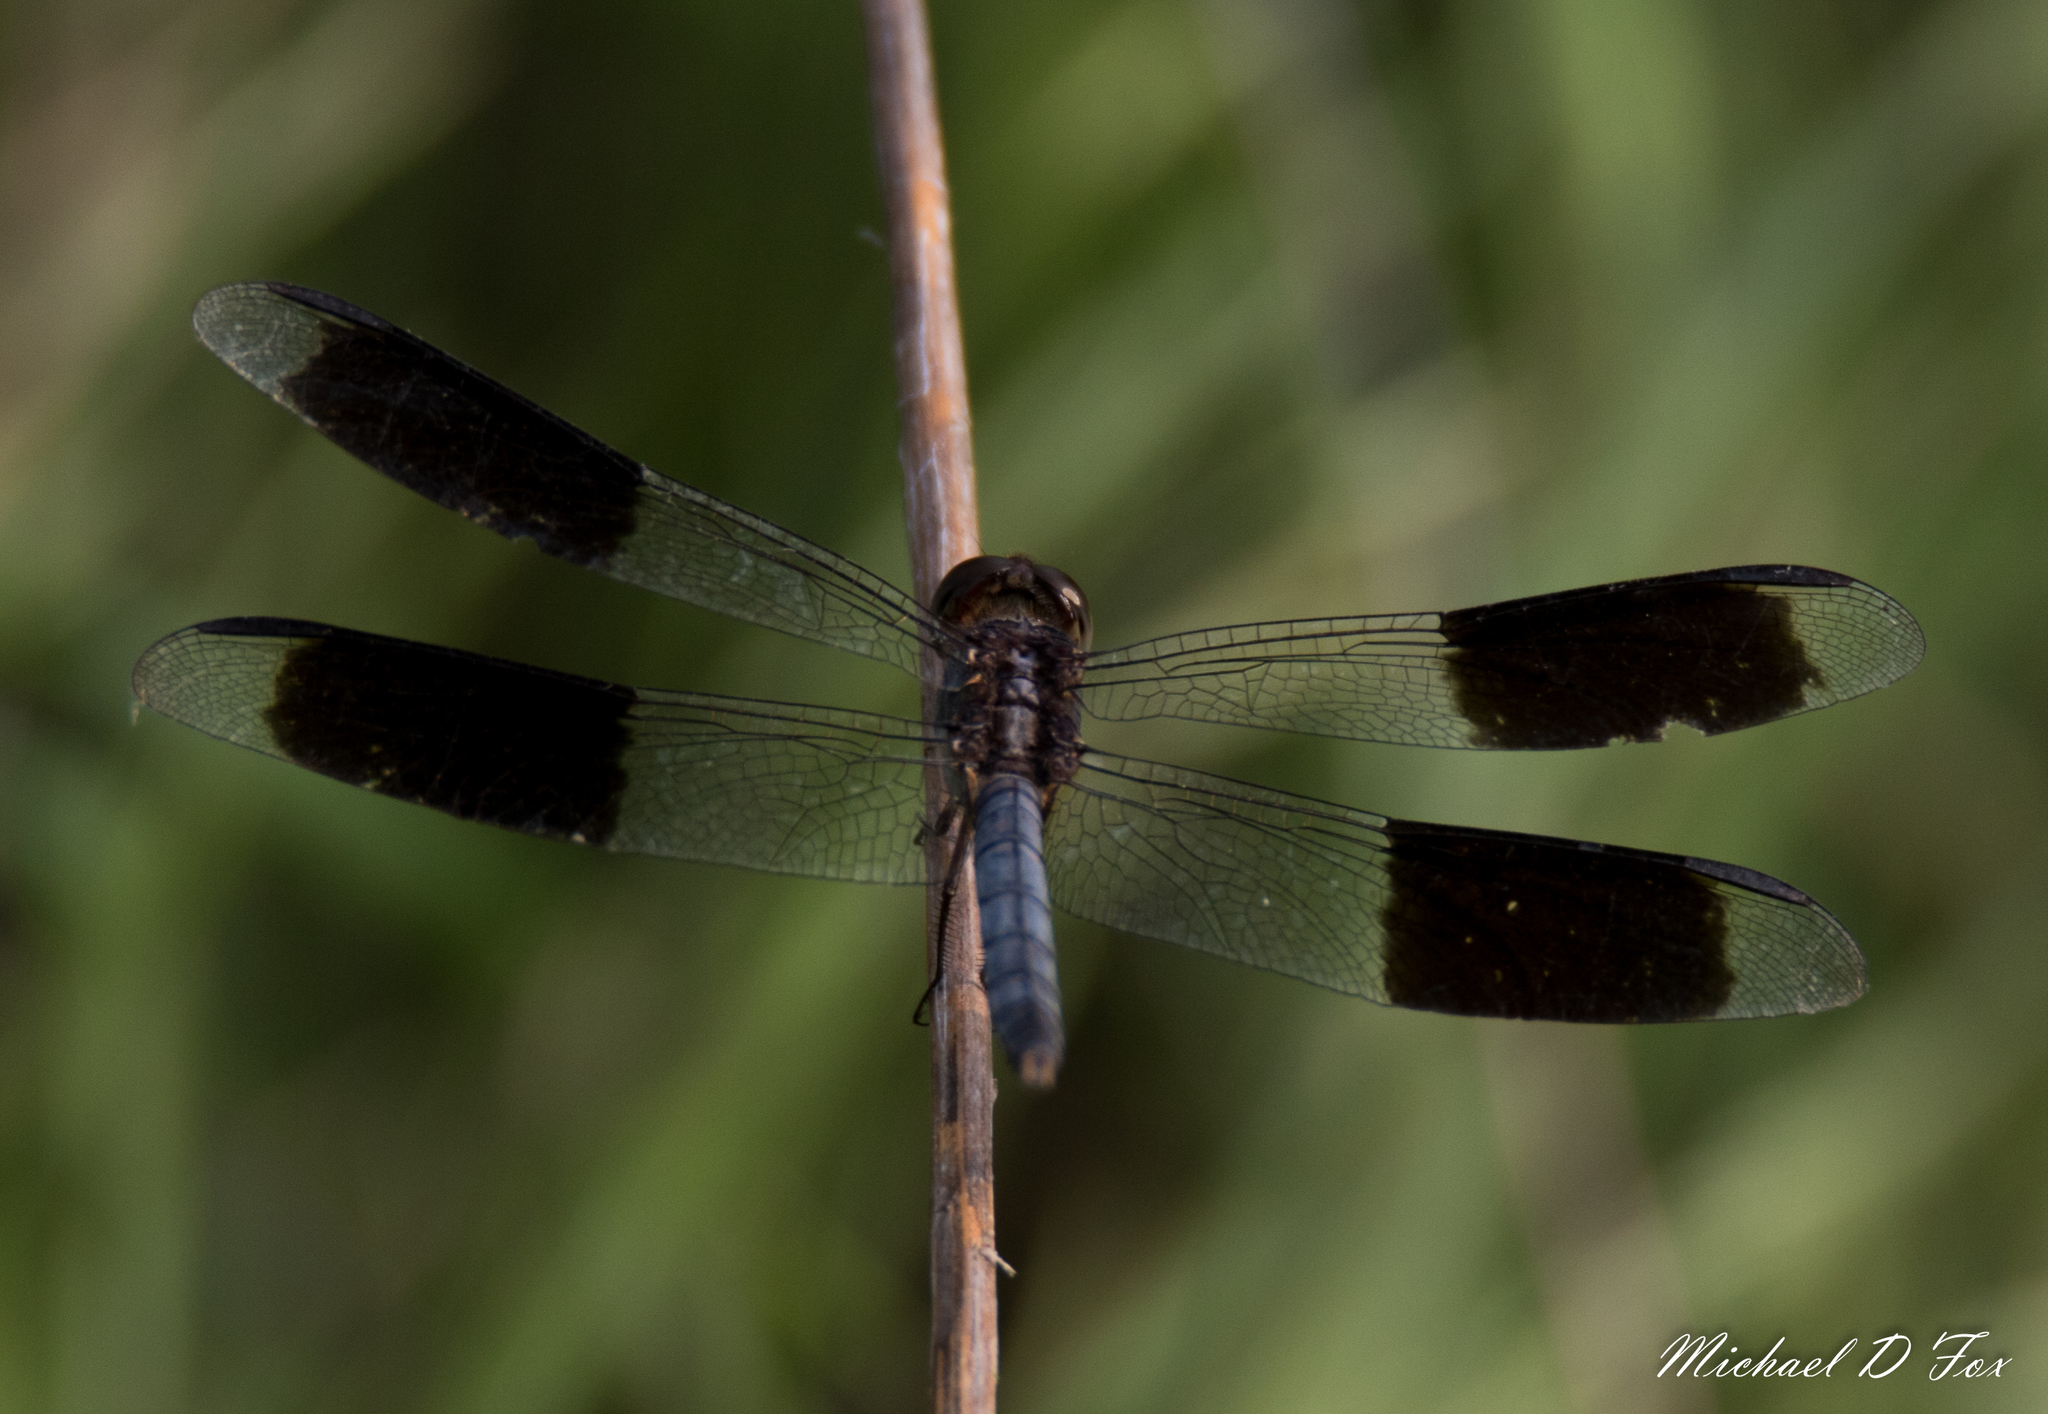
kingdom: Animalia
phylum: Arthropoda
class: Insecta
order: Odonata
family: Libellulidae
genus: Erythrodiplax
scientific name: Erythrodiplax umbrata
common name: Band-winged dragonlet
